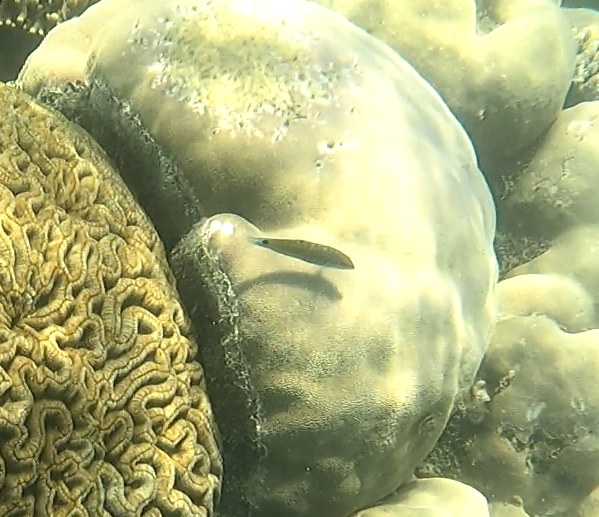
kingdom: Animalia
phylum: Chordata
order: Perciformes
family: Labridae
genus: Thalassoma
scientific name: Thalassoma lunare
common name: Blue wrasse
